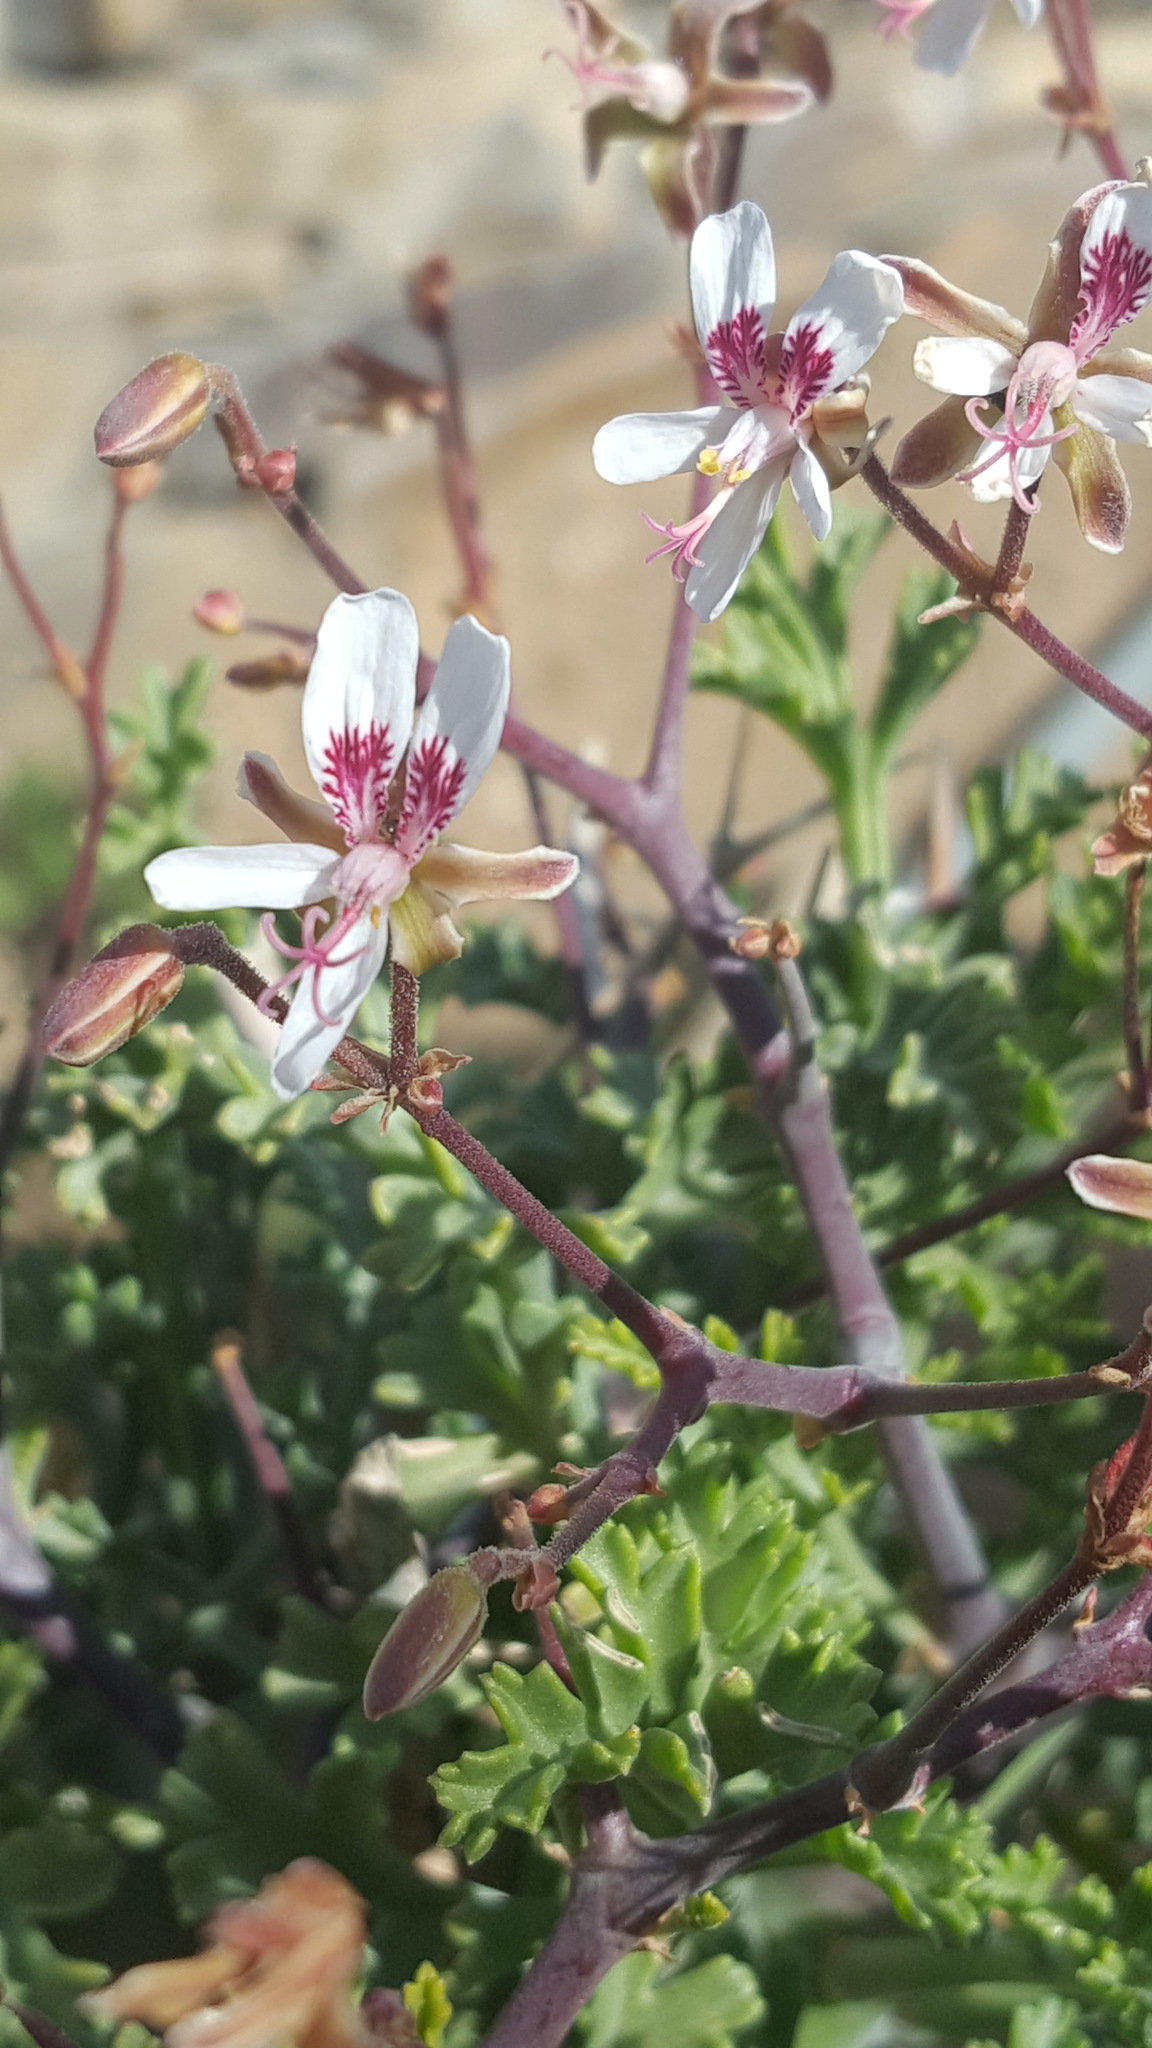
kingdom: Plantae
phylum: Tracheophyta
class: Magnoliopsida
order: Geraniales
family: Geraniaceae
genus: Pelargonium
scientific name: Pelargonium crithmifolium
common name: Samphire-leaf pelargonium
